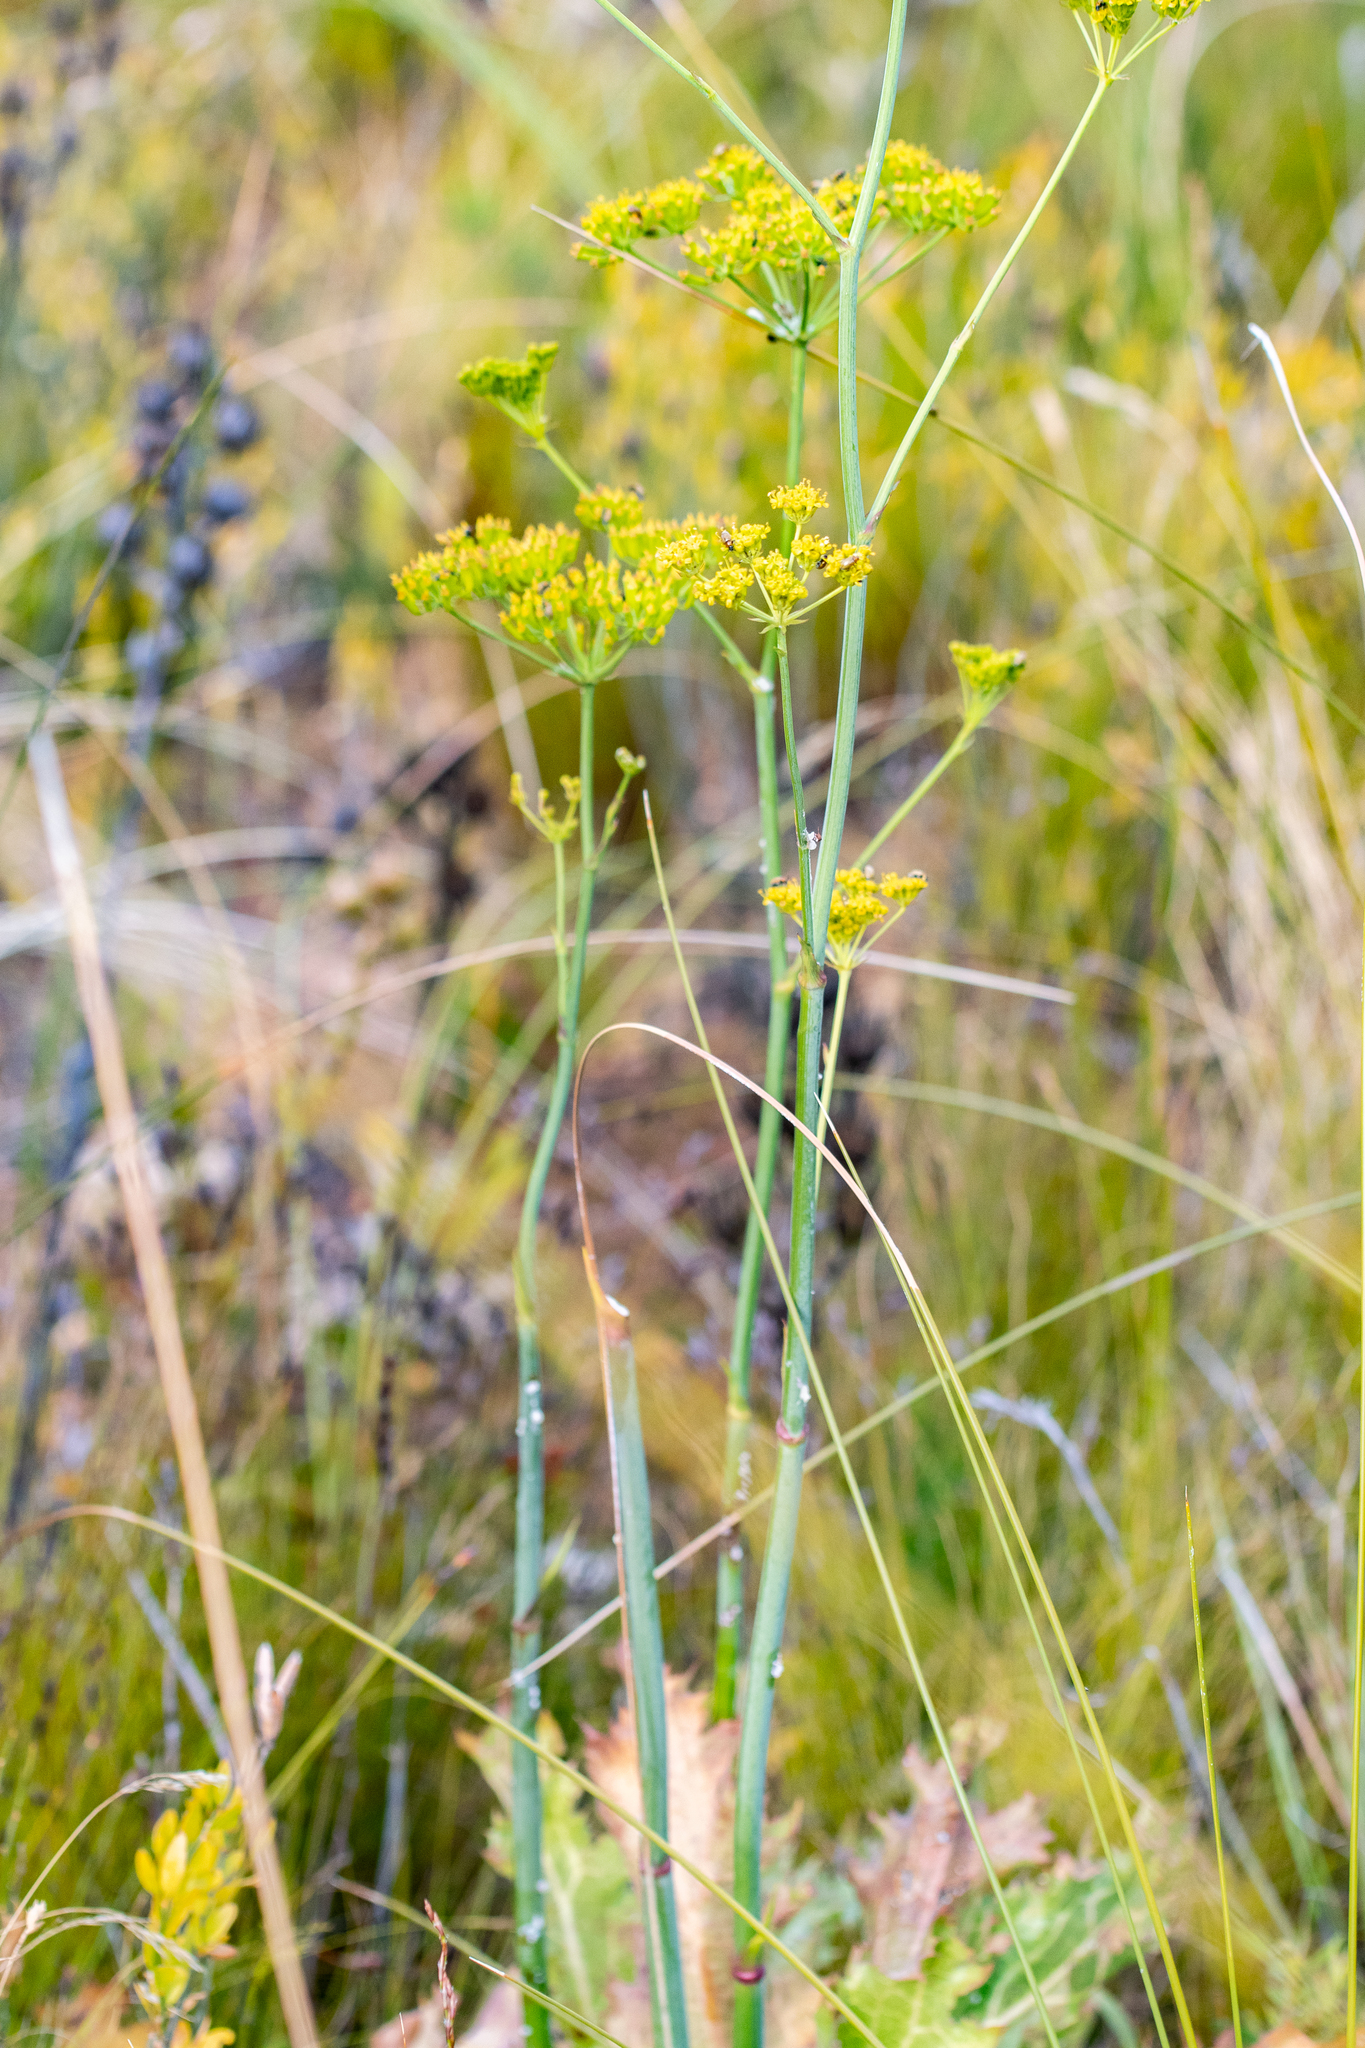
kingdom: Plantae
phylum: Tracheophyta
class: Magnoliopsida
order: Apiales
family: Apiaceae
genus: Lichtensteinia
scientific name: Lichtensteinia lacera
